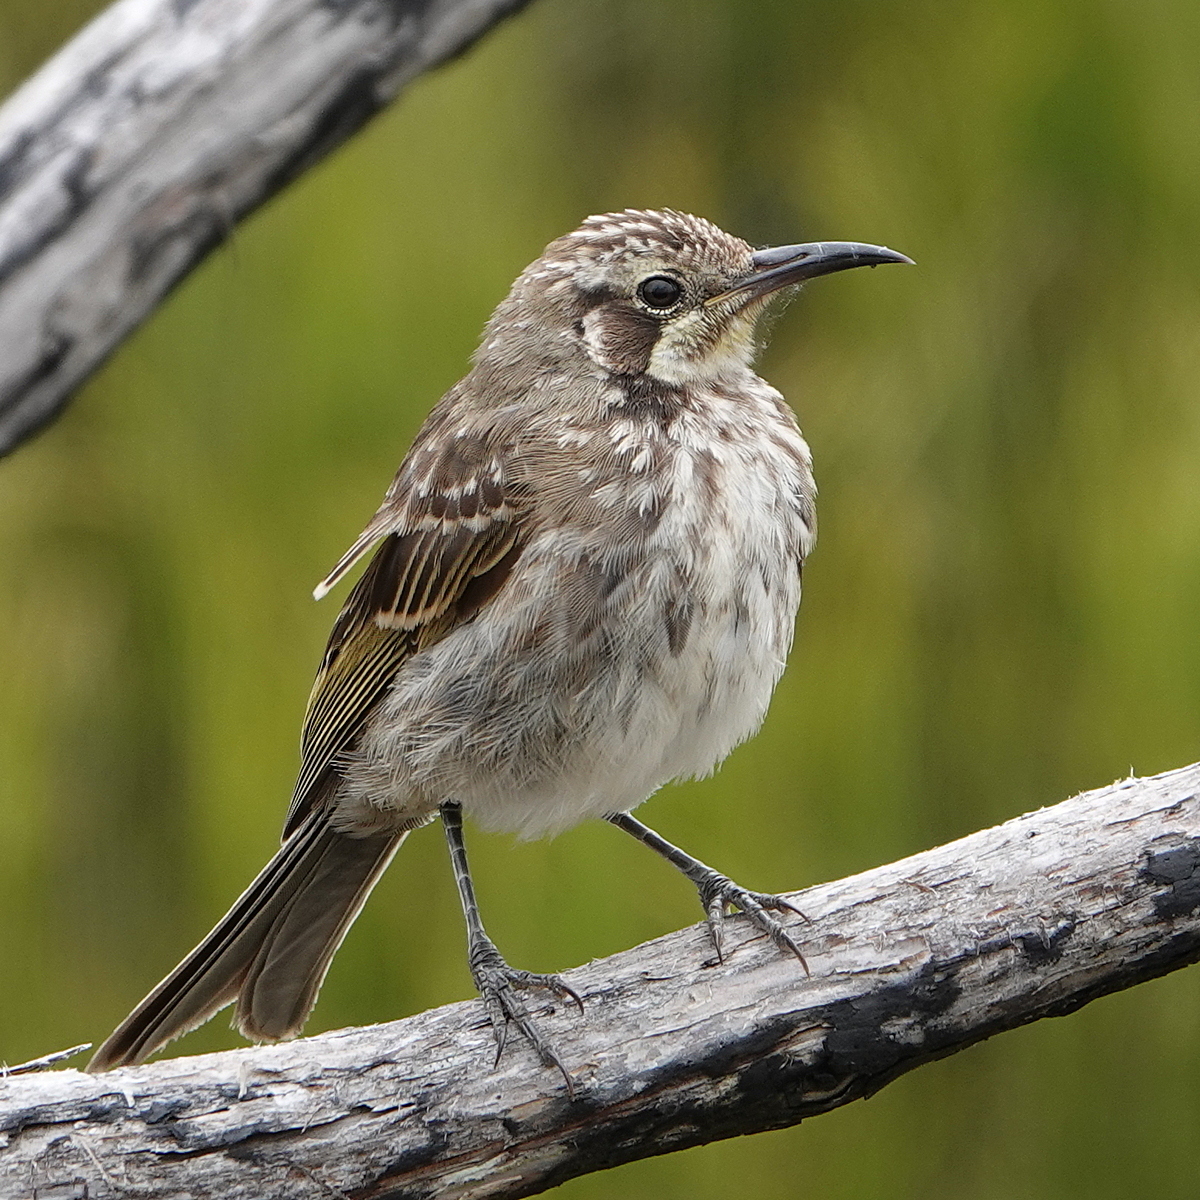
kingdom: Animalia
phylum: Chordata
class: Aves
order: Passeriformes
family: Meliphagidae
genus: Gliciphila
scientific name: Gliciphila melanops
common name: Tawny-crowned honeyeater
